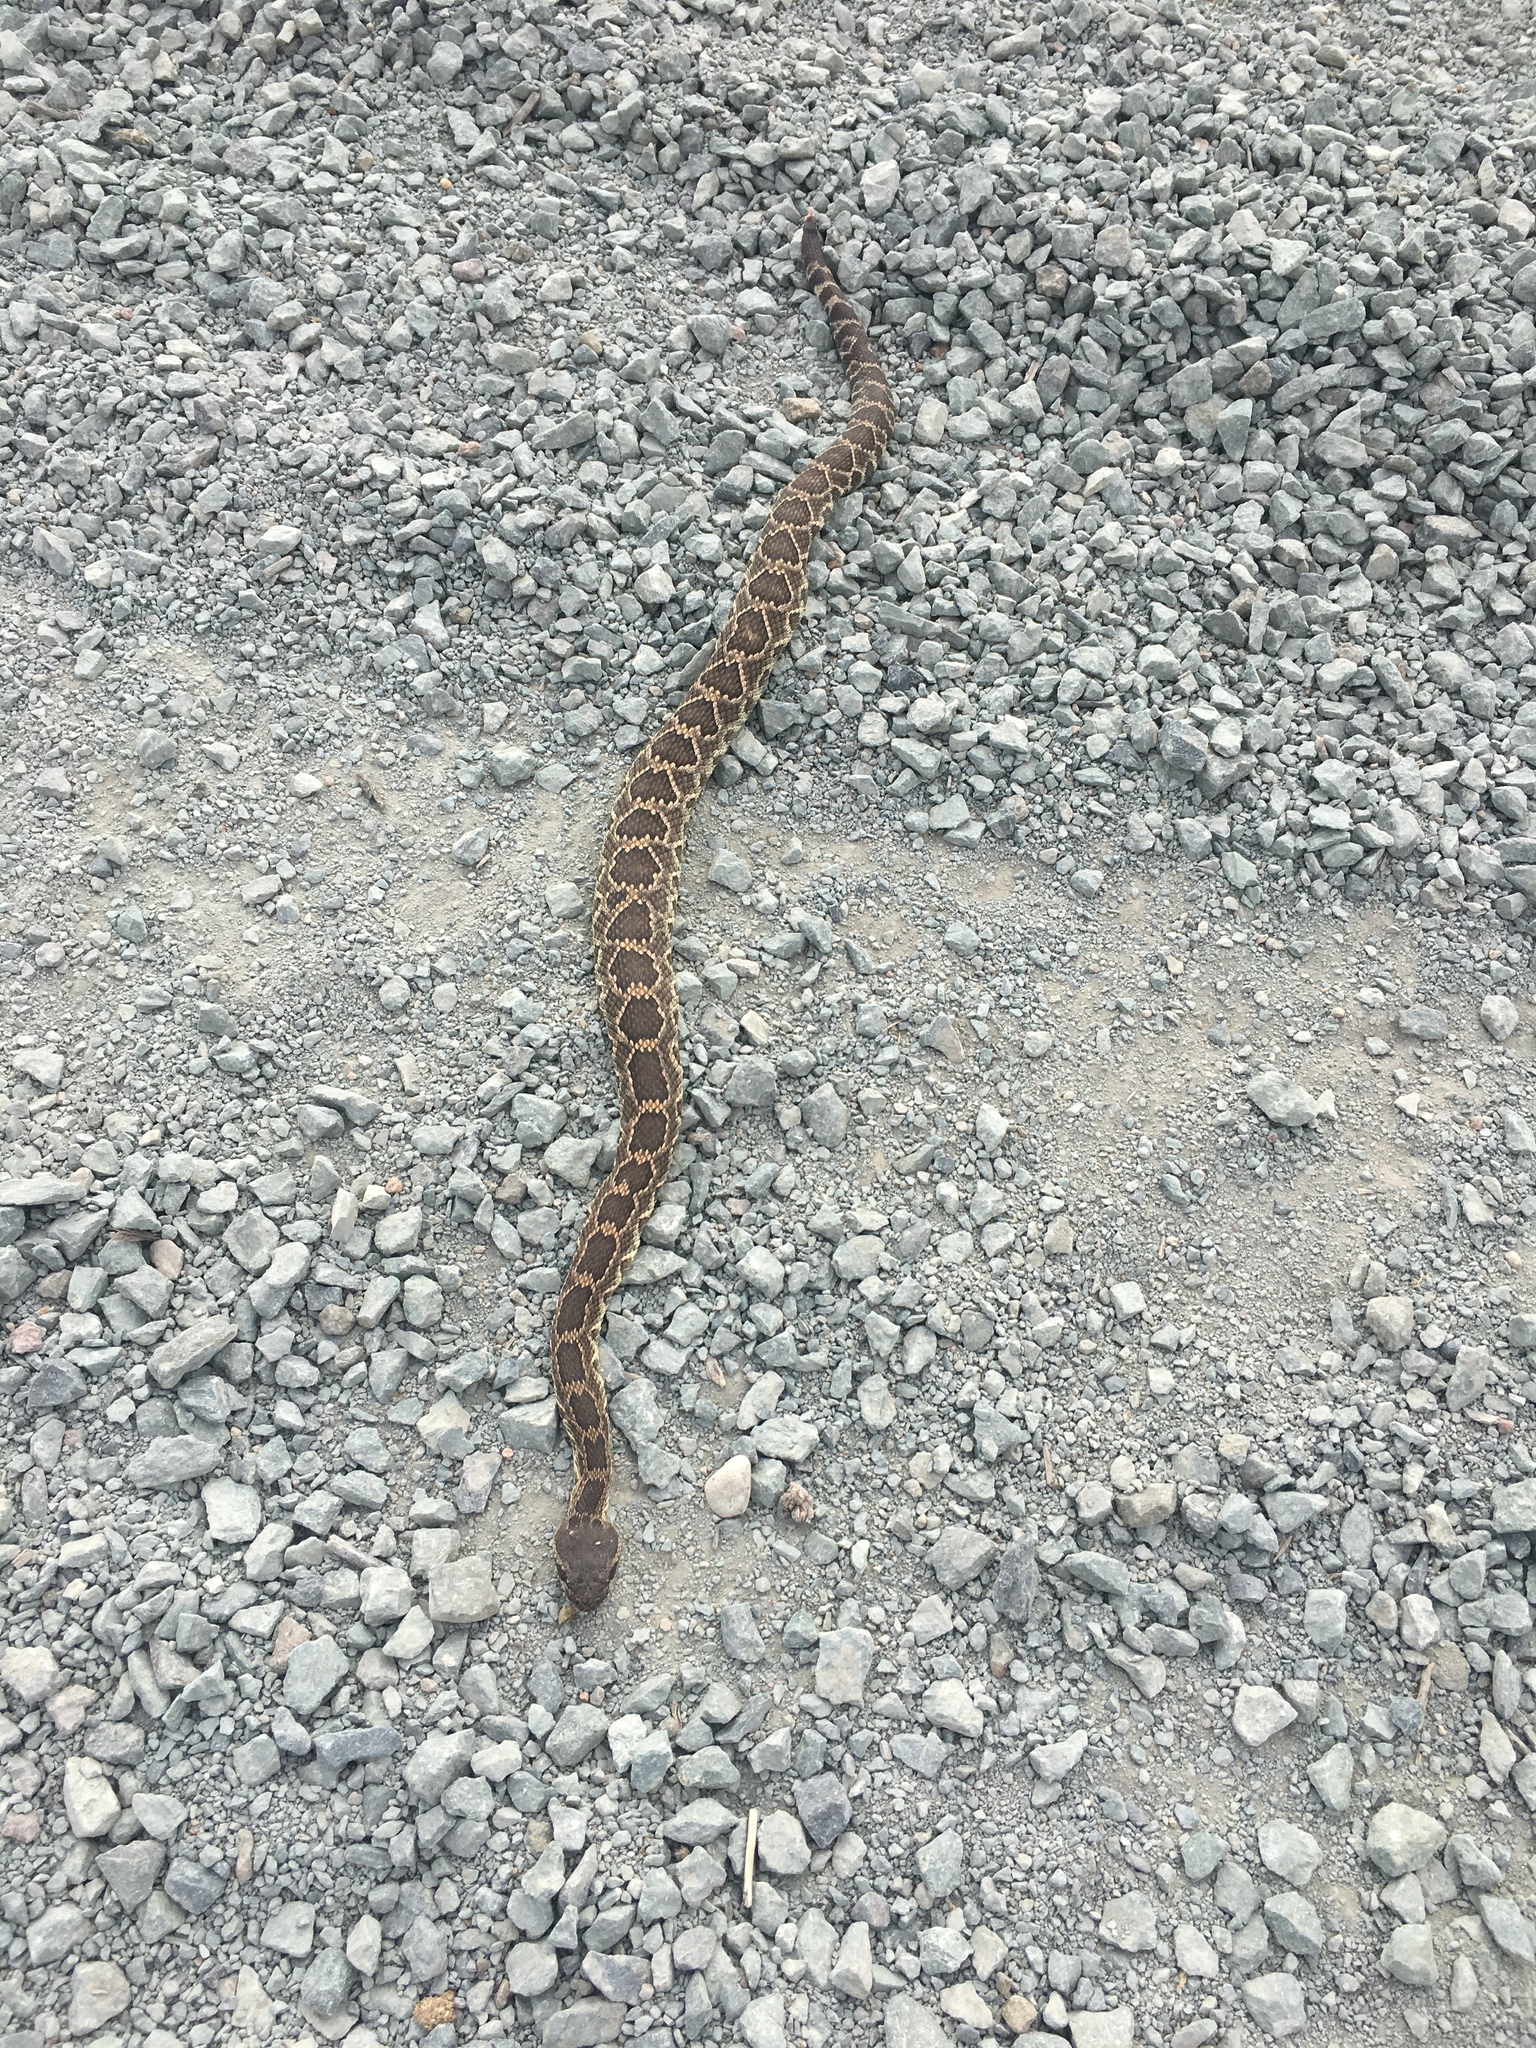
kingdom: Animalia
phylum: Chordata
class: Squamata
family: Viperidae
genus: Crotalus
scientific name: Crotalus oreganus
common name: Abyssus
